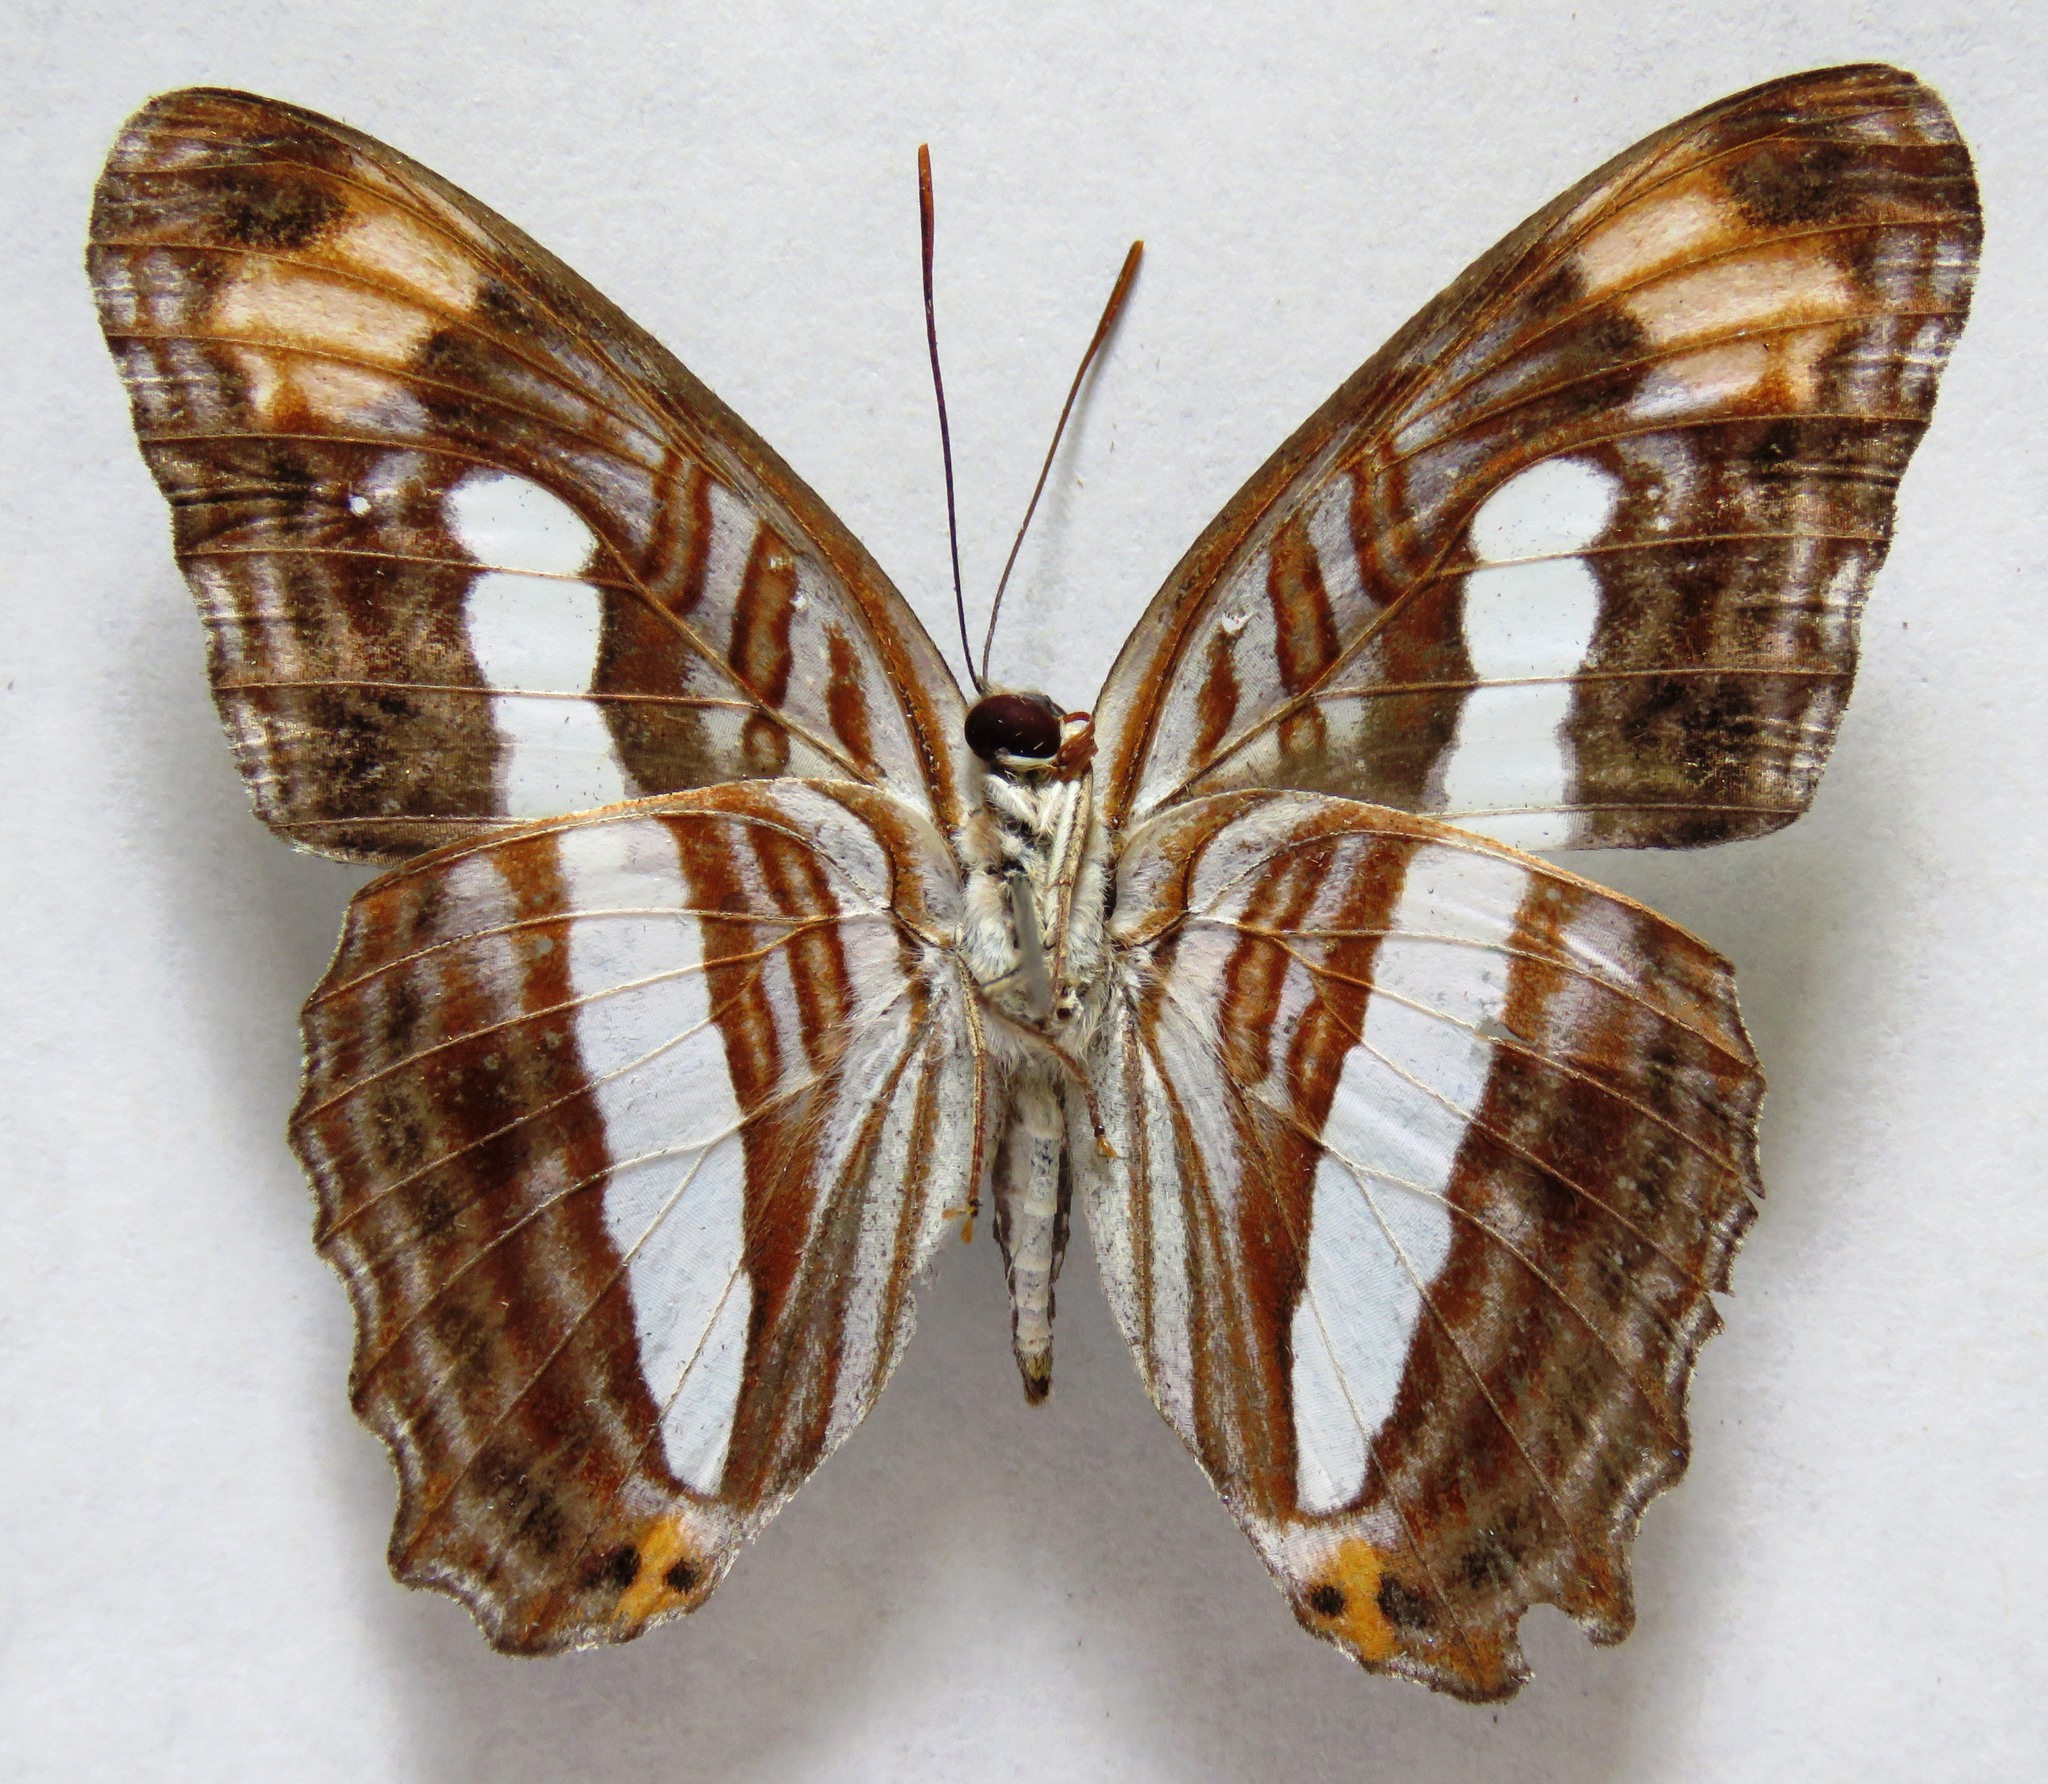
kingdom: Animalia
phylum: Arthropoda
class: Insecta
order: Lepidoptera
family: Nymphalidae
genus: Limenitis
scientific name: Limenitis iphiclus
